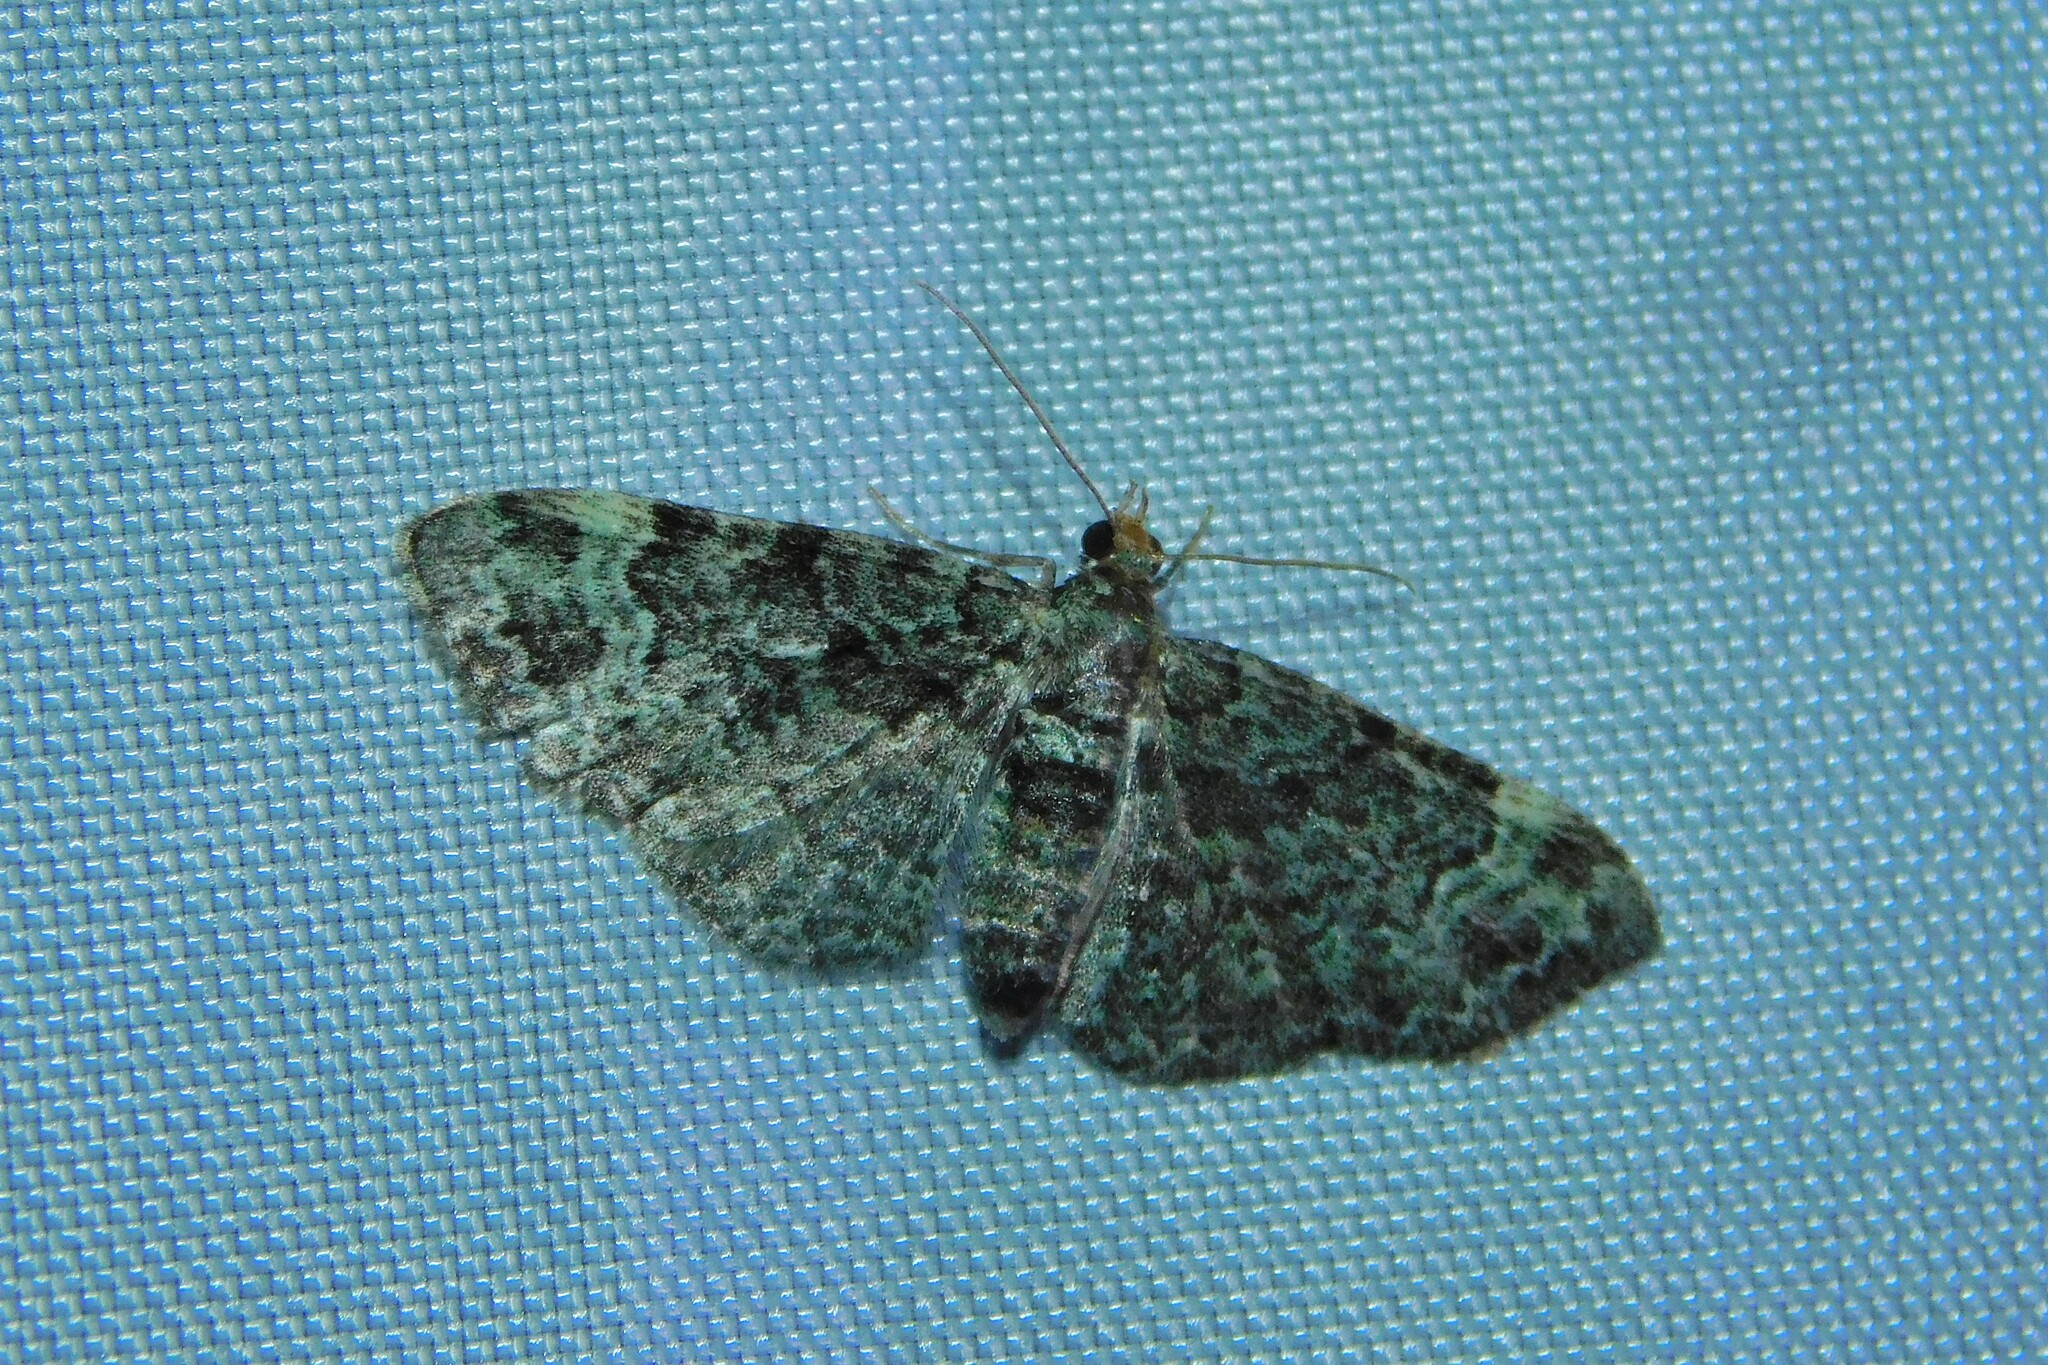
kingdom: Animalia
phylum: Arthropoda
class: Insecta
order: Lepidoptera
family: Geometridae
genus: Pasiphila
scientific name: Pasiphila rectangulata
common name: Green pug
